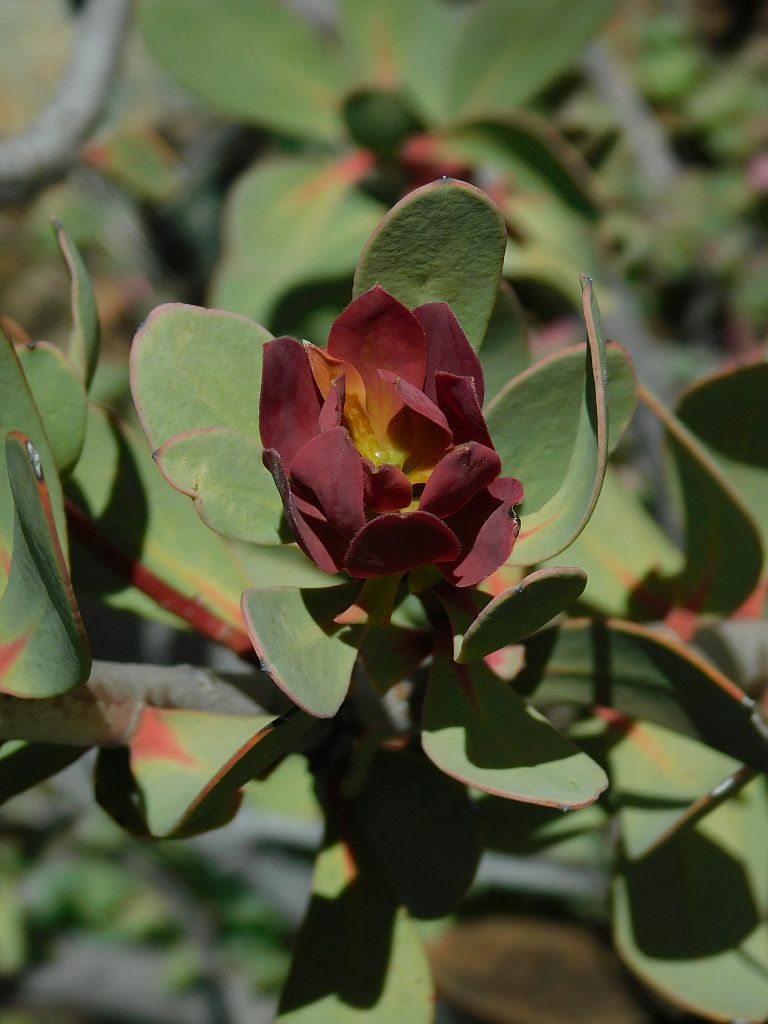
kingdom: Plantae
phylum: Tracheophyta
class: Magnoliopsida
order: Proteales
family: Proteaceae
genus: Protea
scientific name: Protea glabra
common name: Chestnut sugarbush
